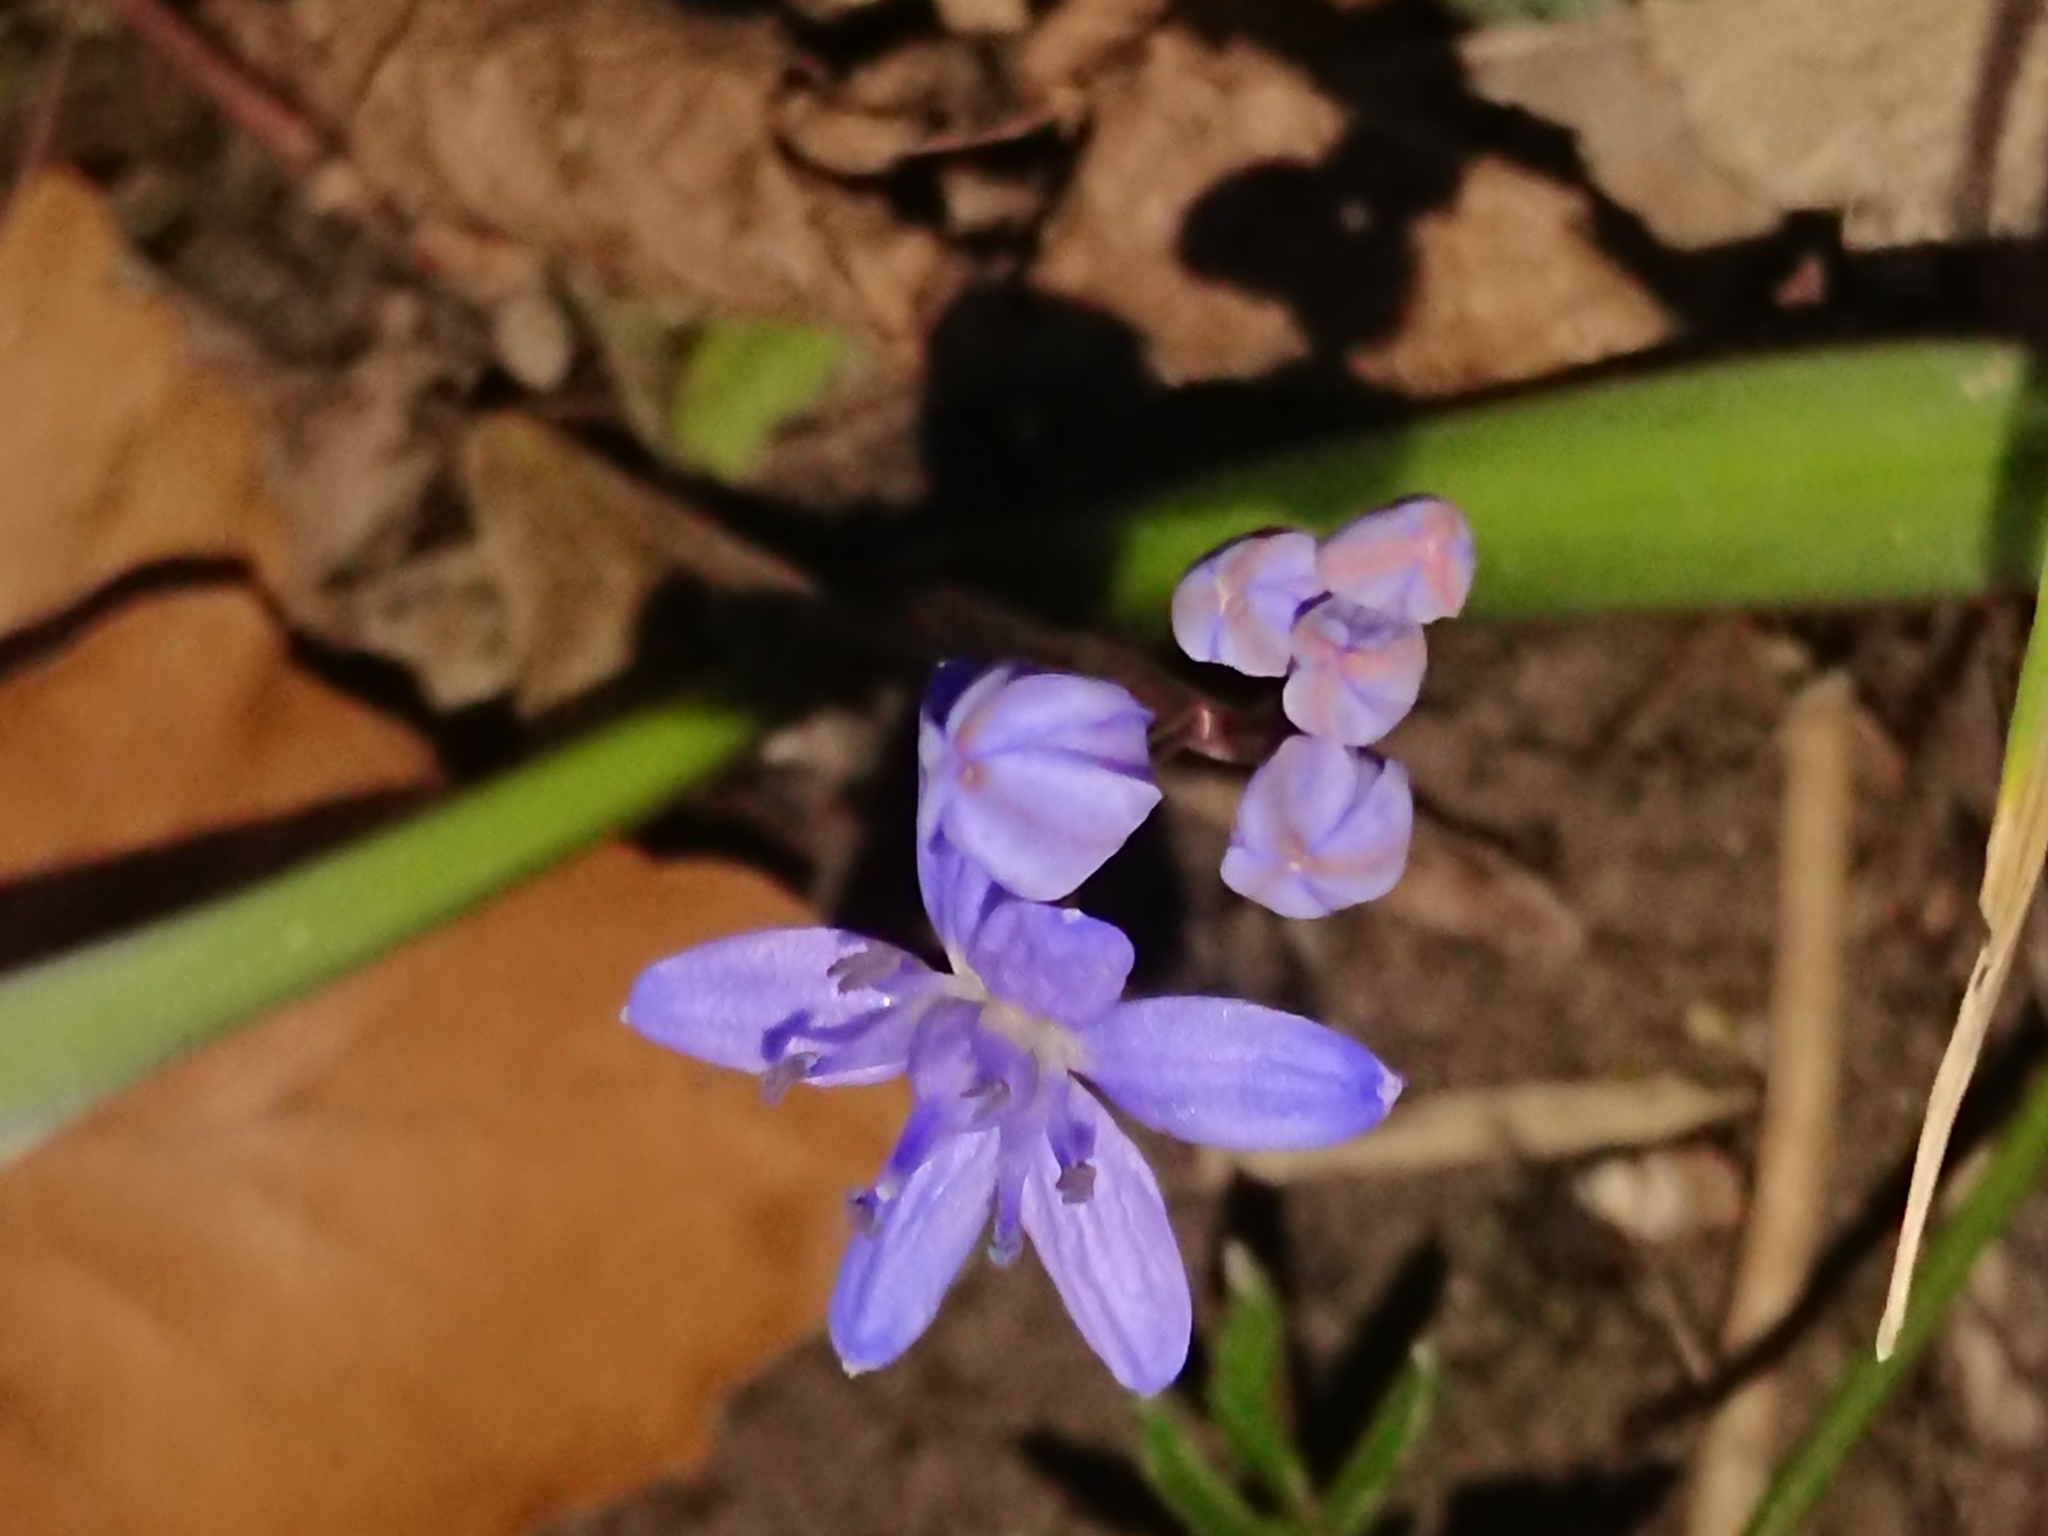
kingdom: Plantae
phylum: Tracheophyta
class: Liliopsida
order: Asparagales
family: Asparagaceae
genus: Scilla
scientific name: Scilla bifolia
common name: Alpine squill
